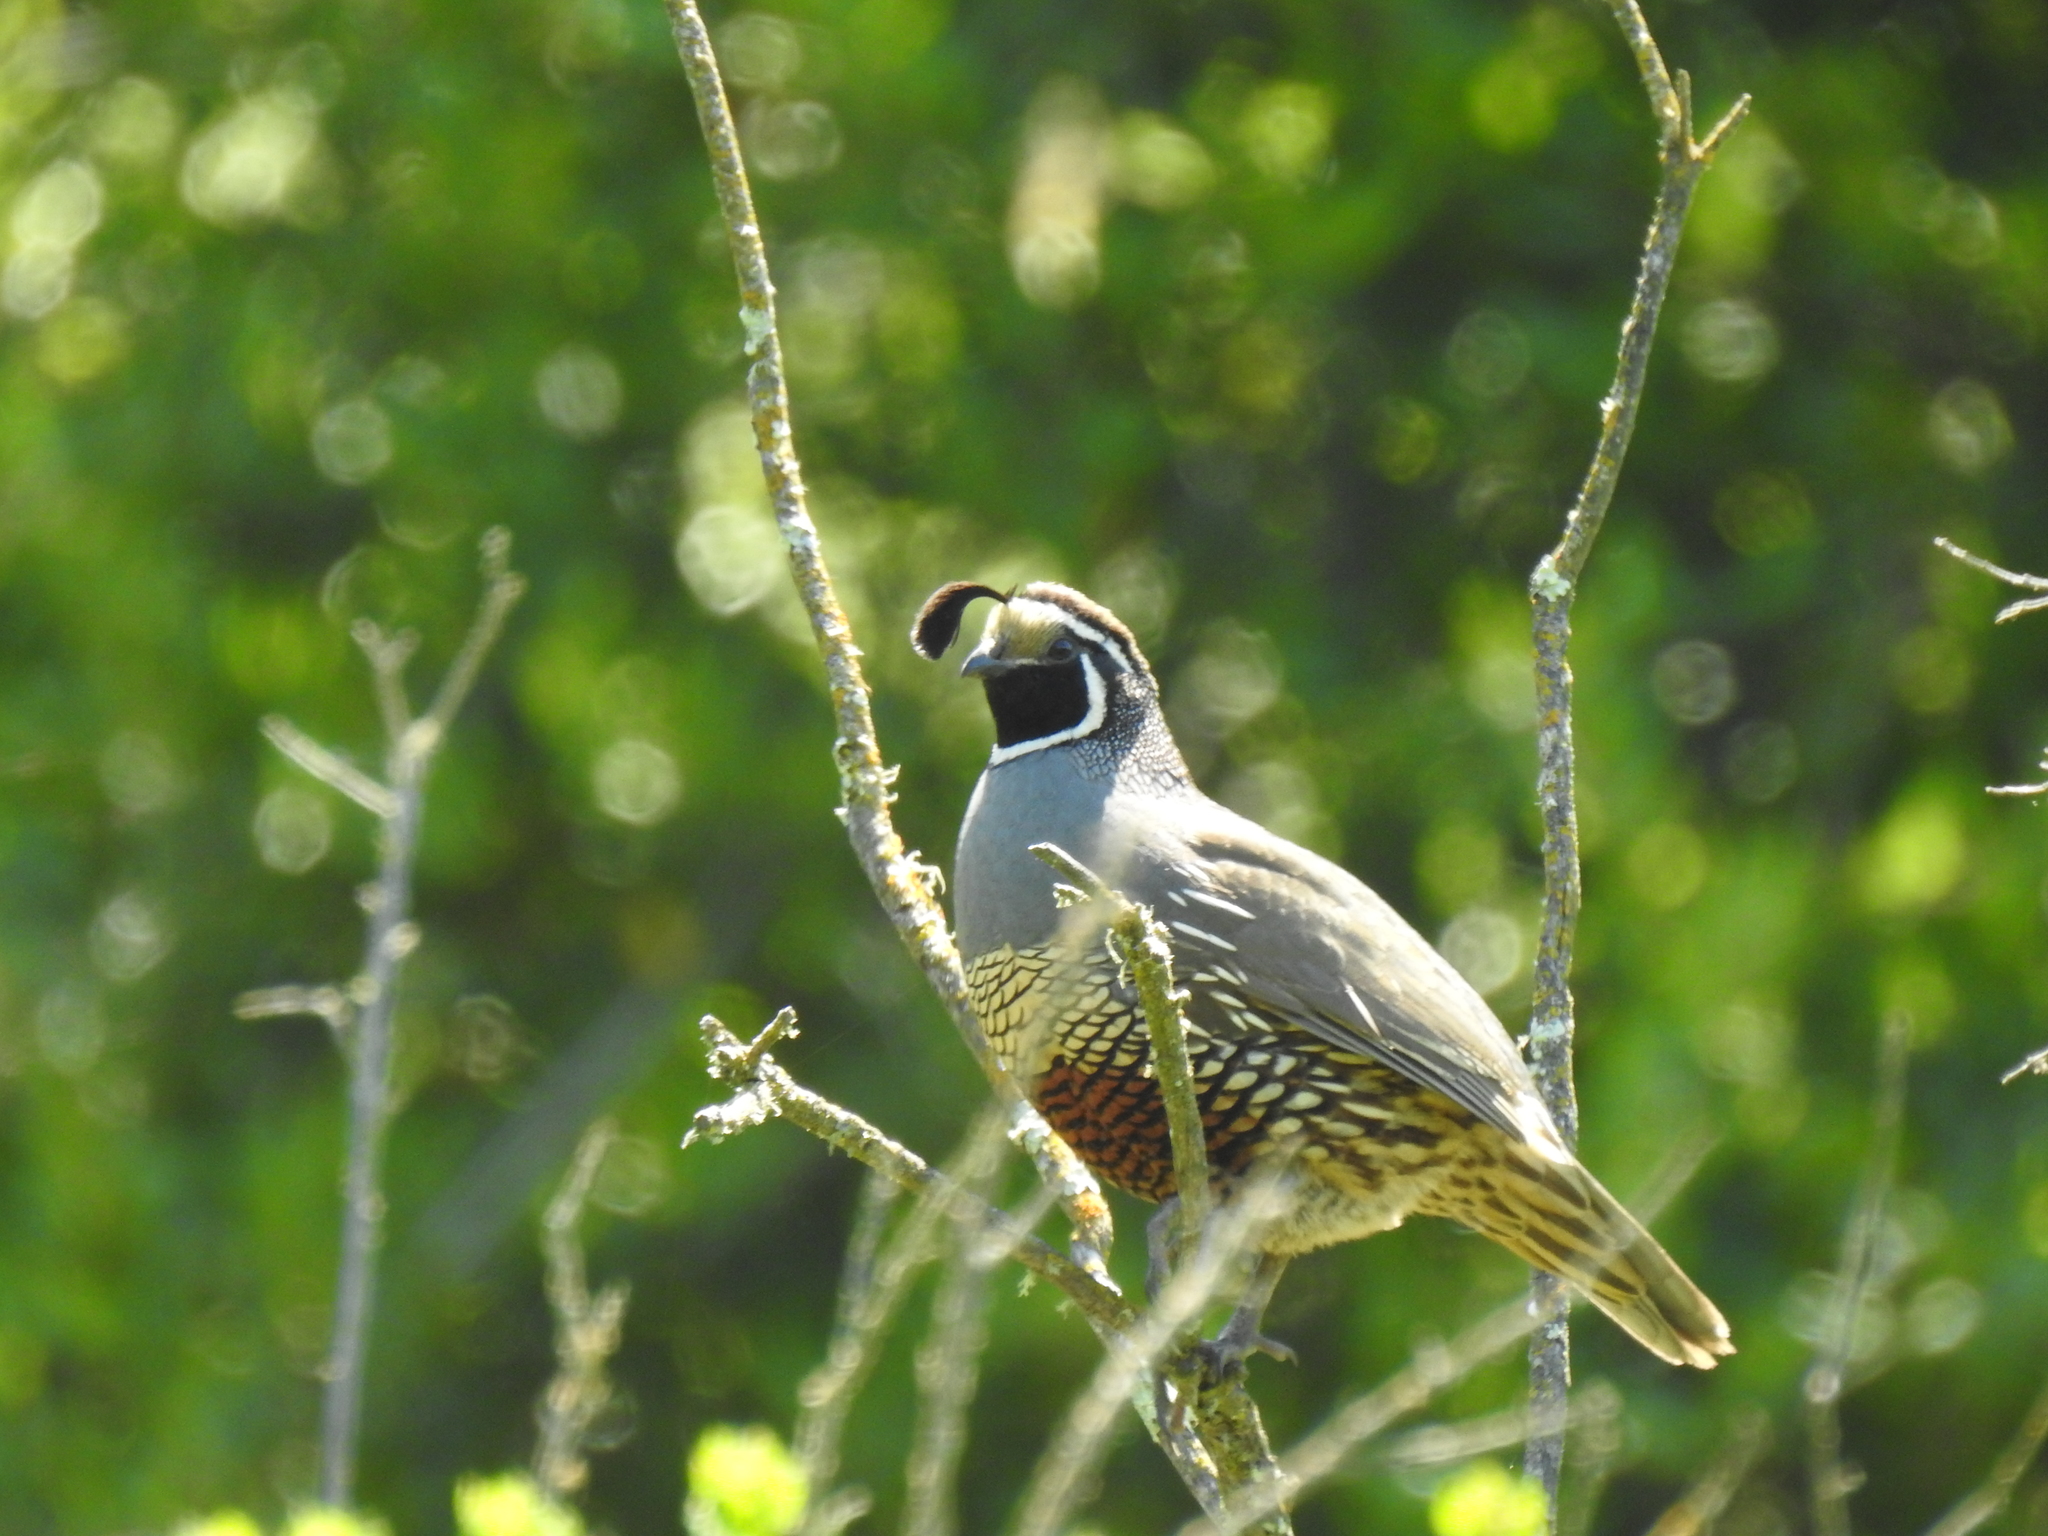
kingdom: Animalia
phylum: Chordata
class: Aves
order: Galliformes
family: Odontophoridae
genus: Callipepla
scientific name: Callipepla californica
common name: California quail
